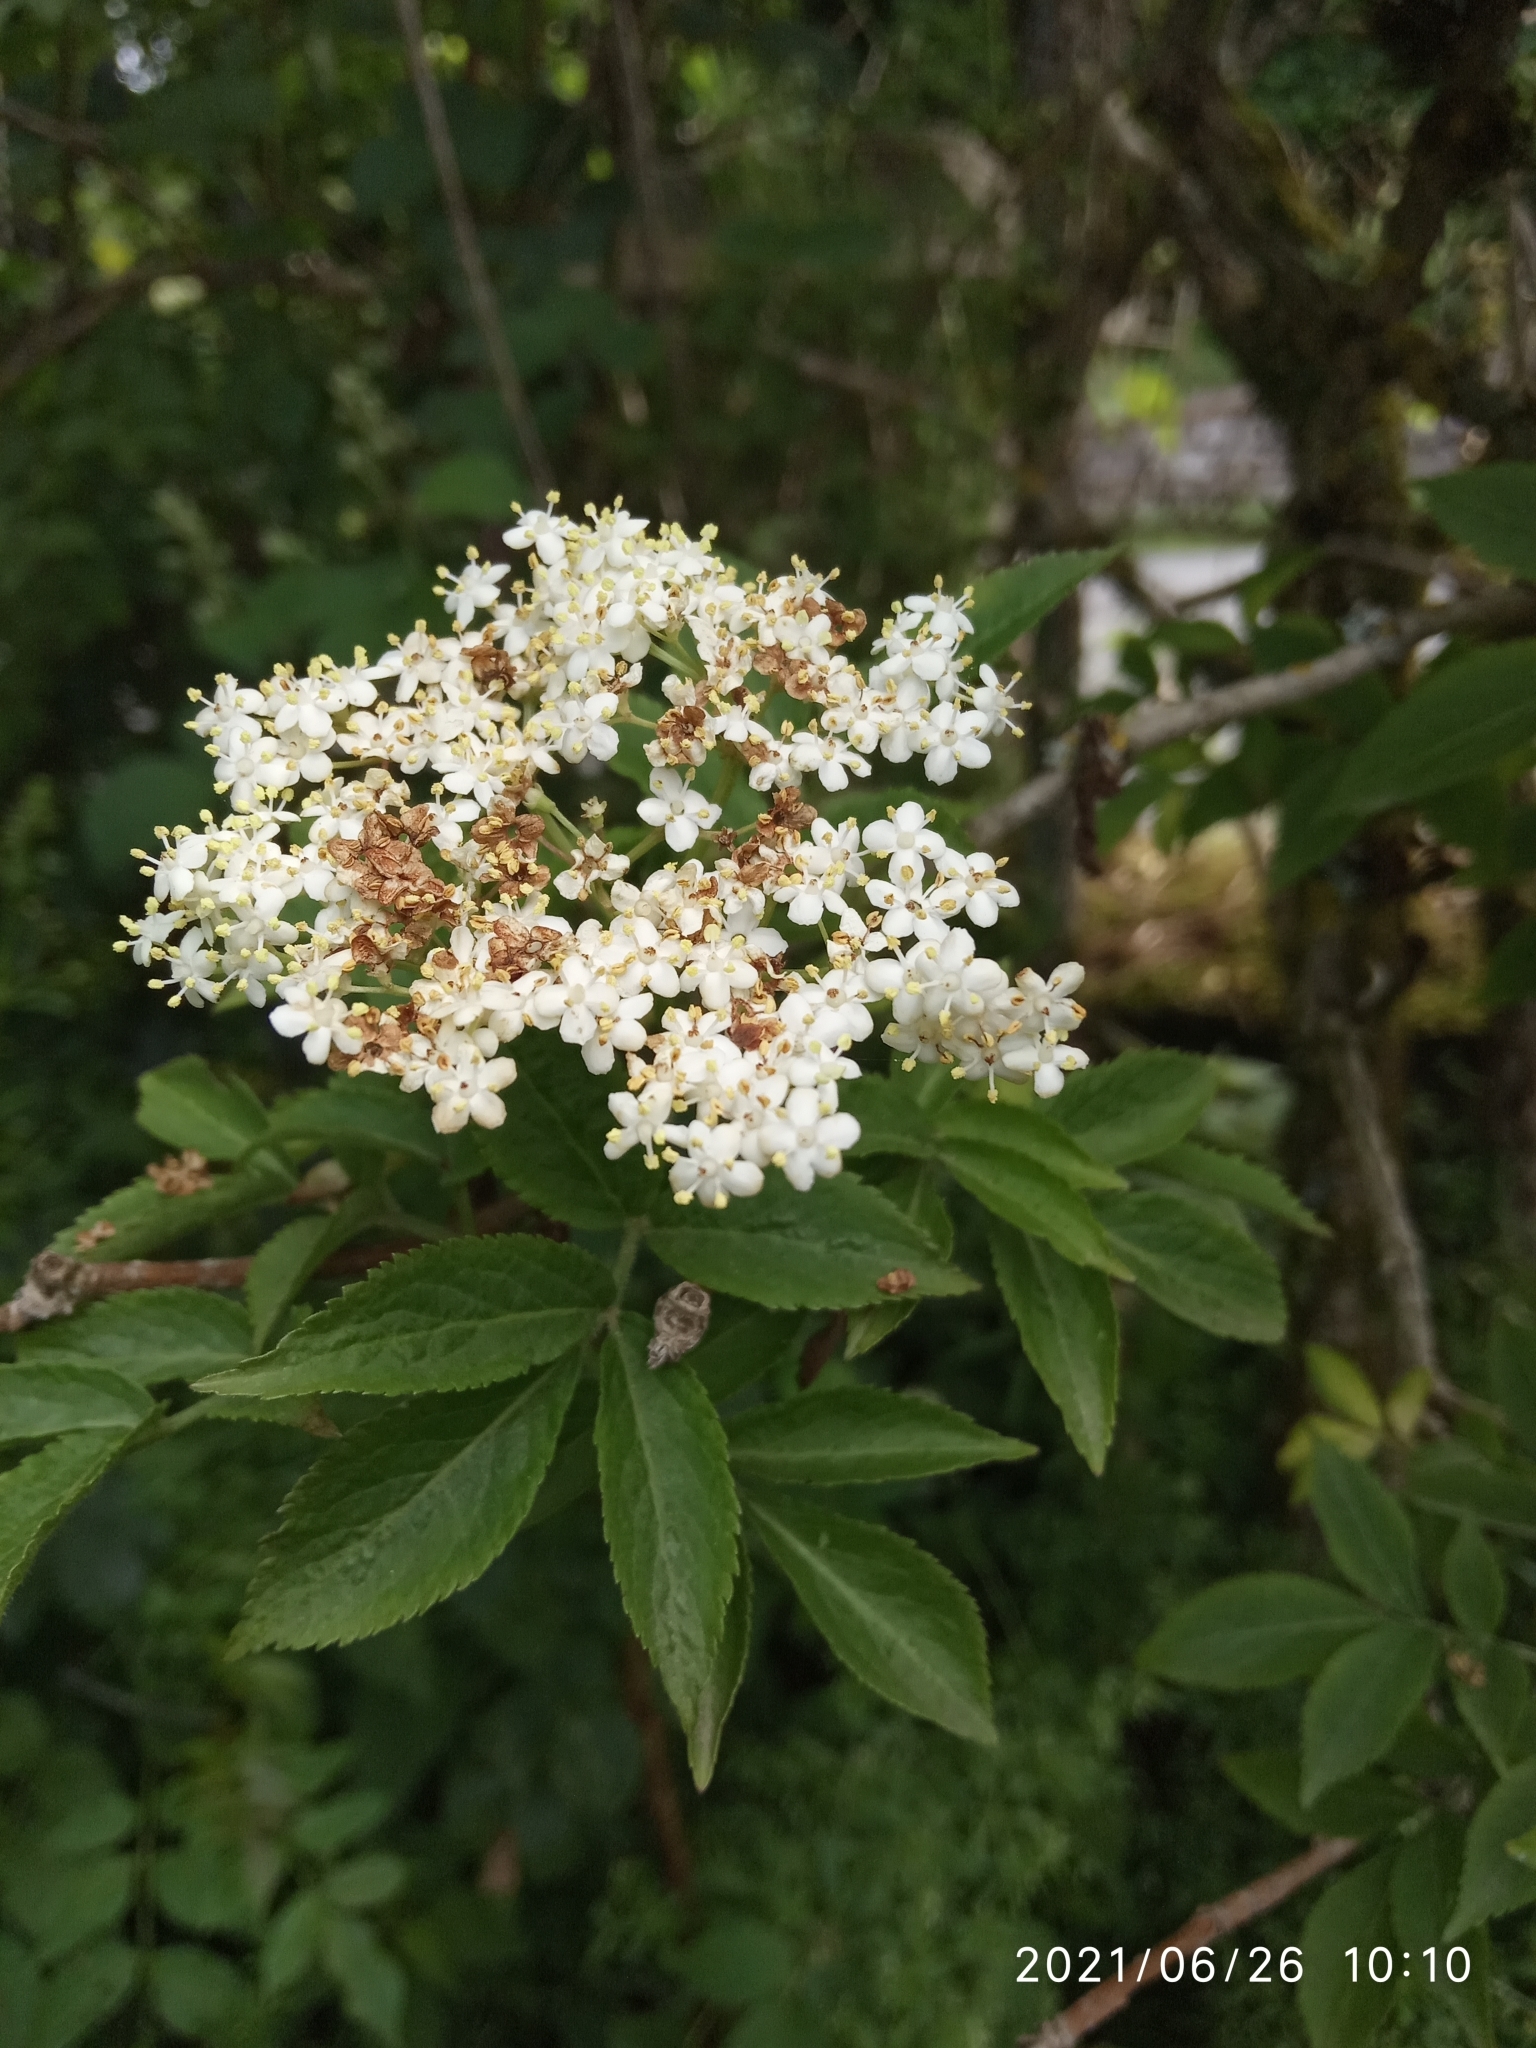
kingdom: Plantae
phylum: Tracheophyta
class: Magnoliopsida
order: Dipsacales
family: Viburnaceae
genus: Sambucus
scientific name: Sambucus nigra
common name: Elder
